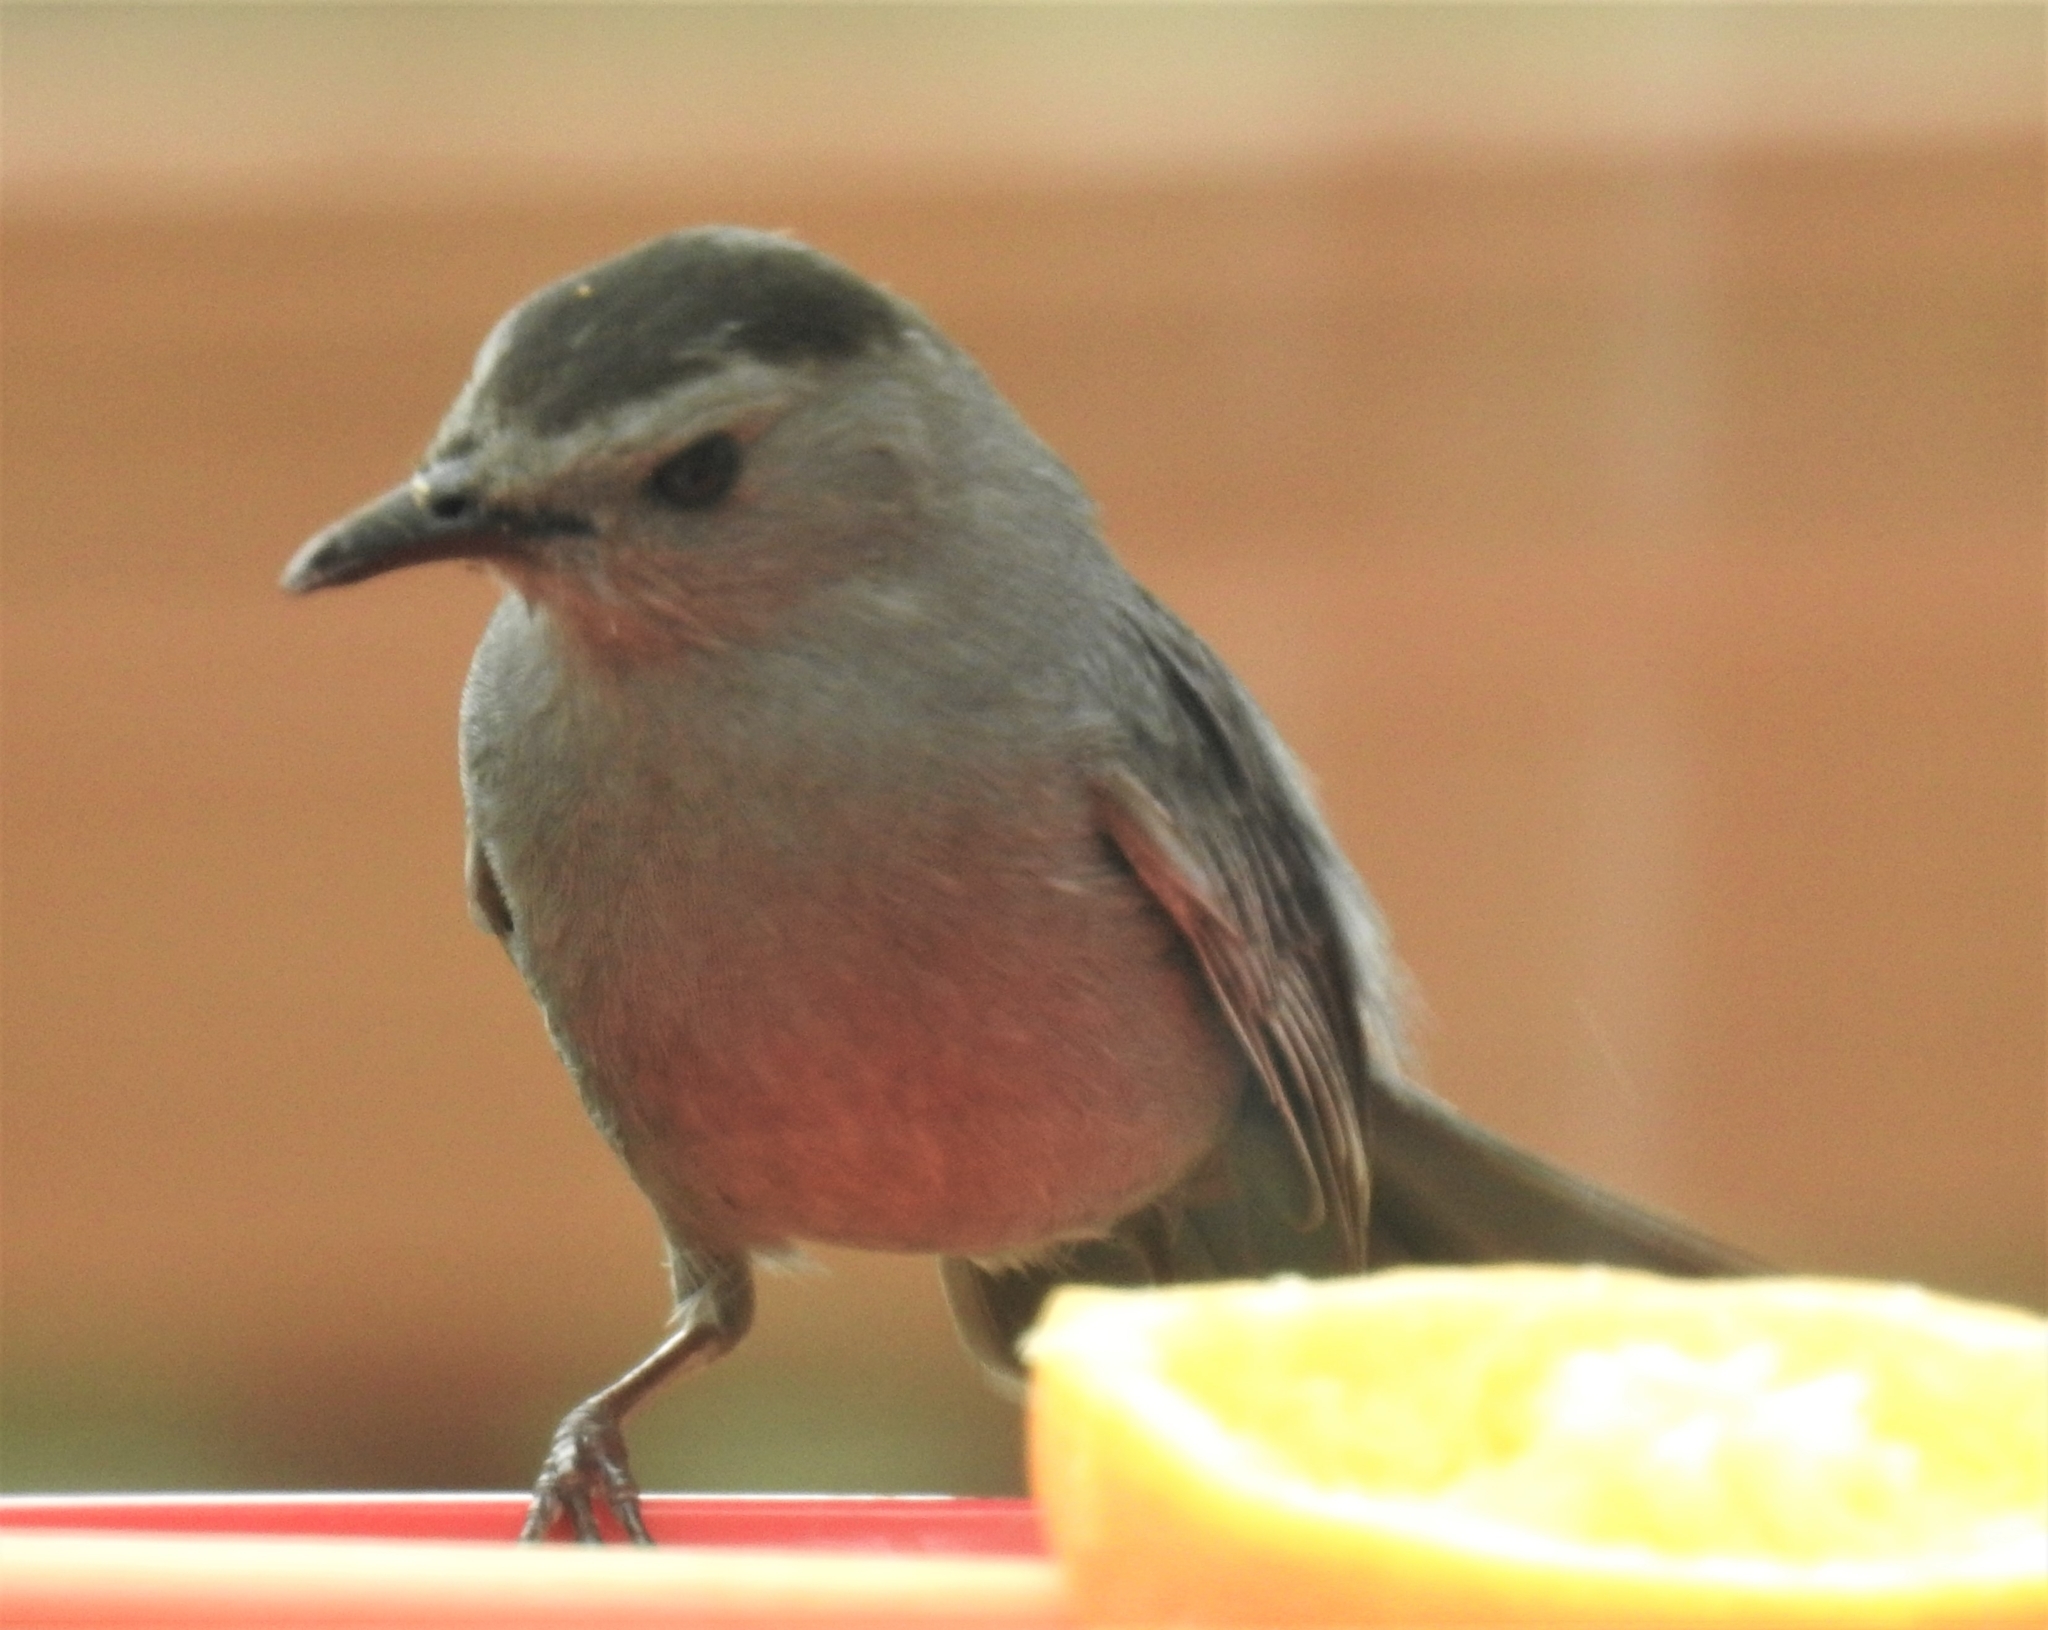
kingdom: Animalia
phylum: Chordata
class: Aves
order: Passeriformes
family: Mimidae
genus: Dumetella
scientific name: Dumetella carolinensis
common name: Gray catbird
